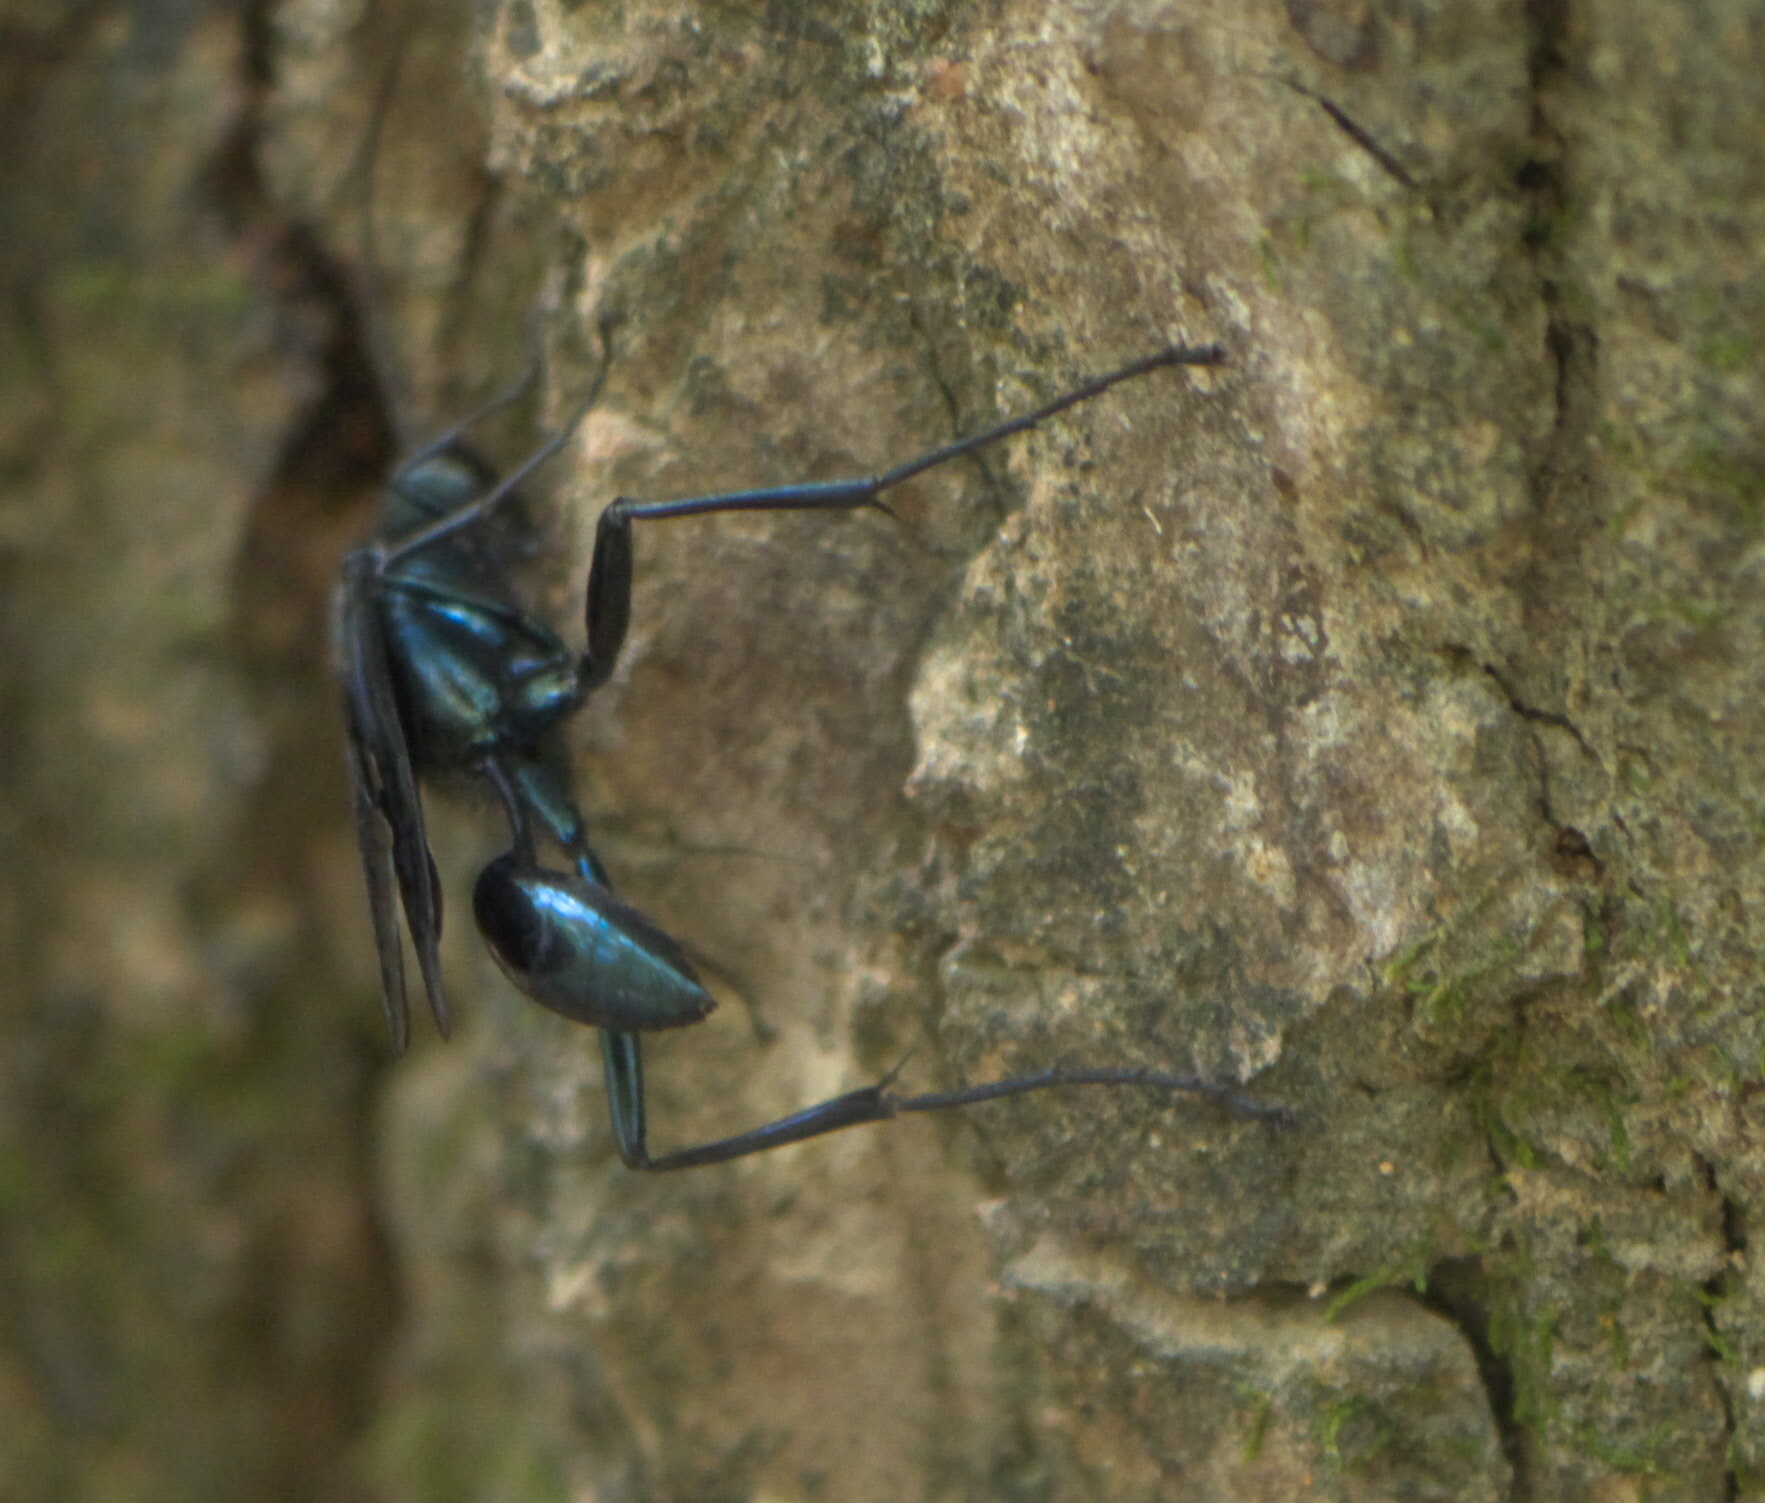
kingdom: Animalia
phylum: Arthropoda
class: Insecta
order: Hymenoptera
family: Sphecidae
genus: Chalybion
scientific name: Chalybion californicum
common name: Mud dauber
